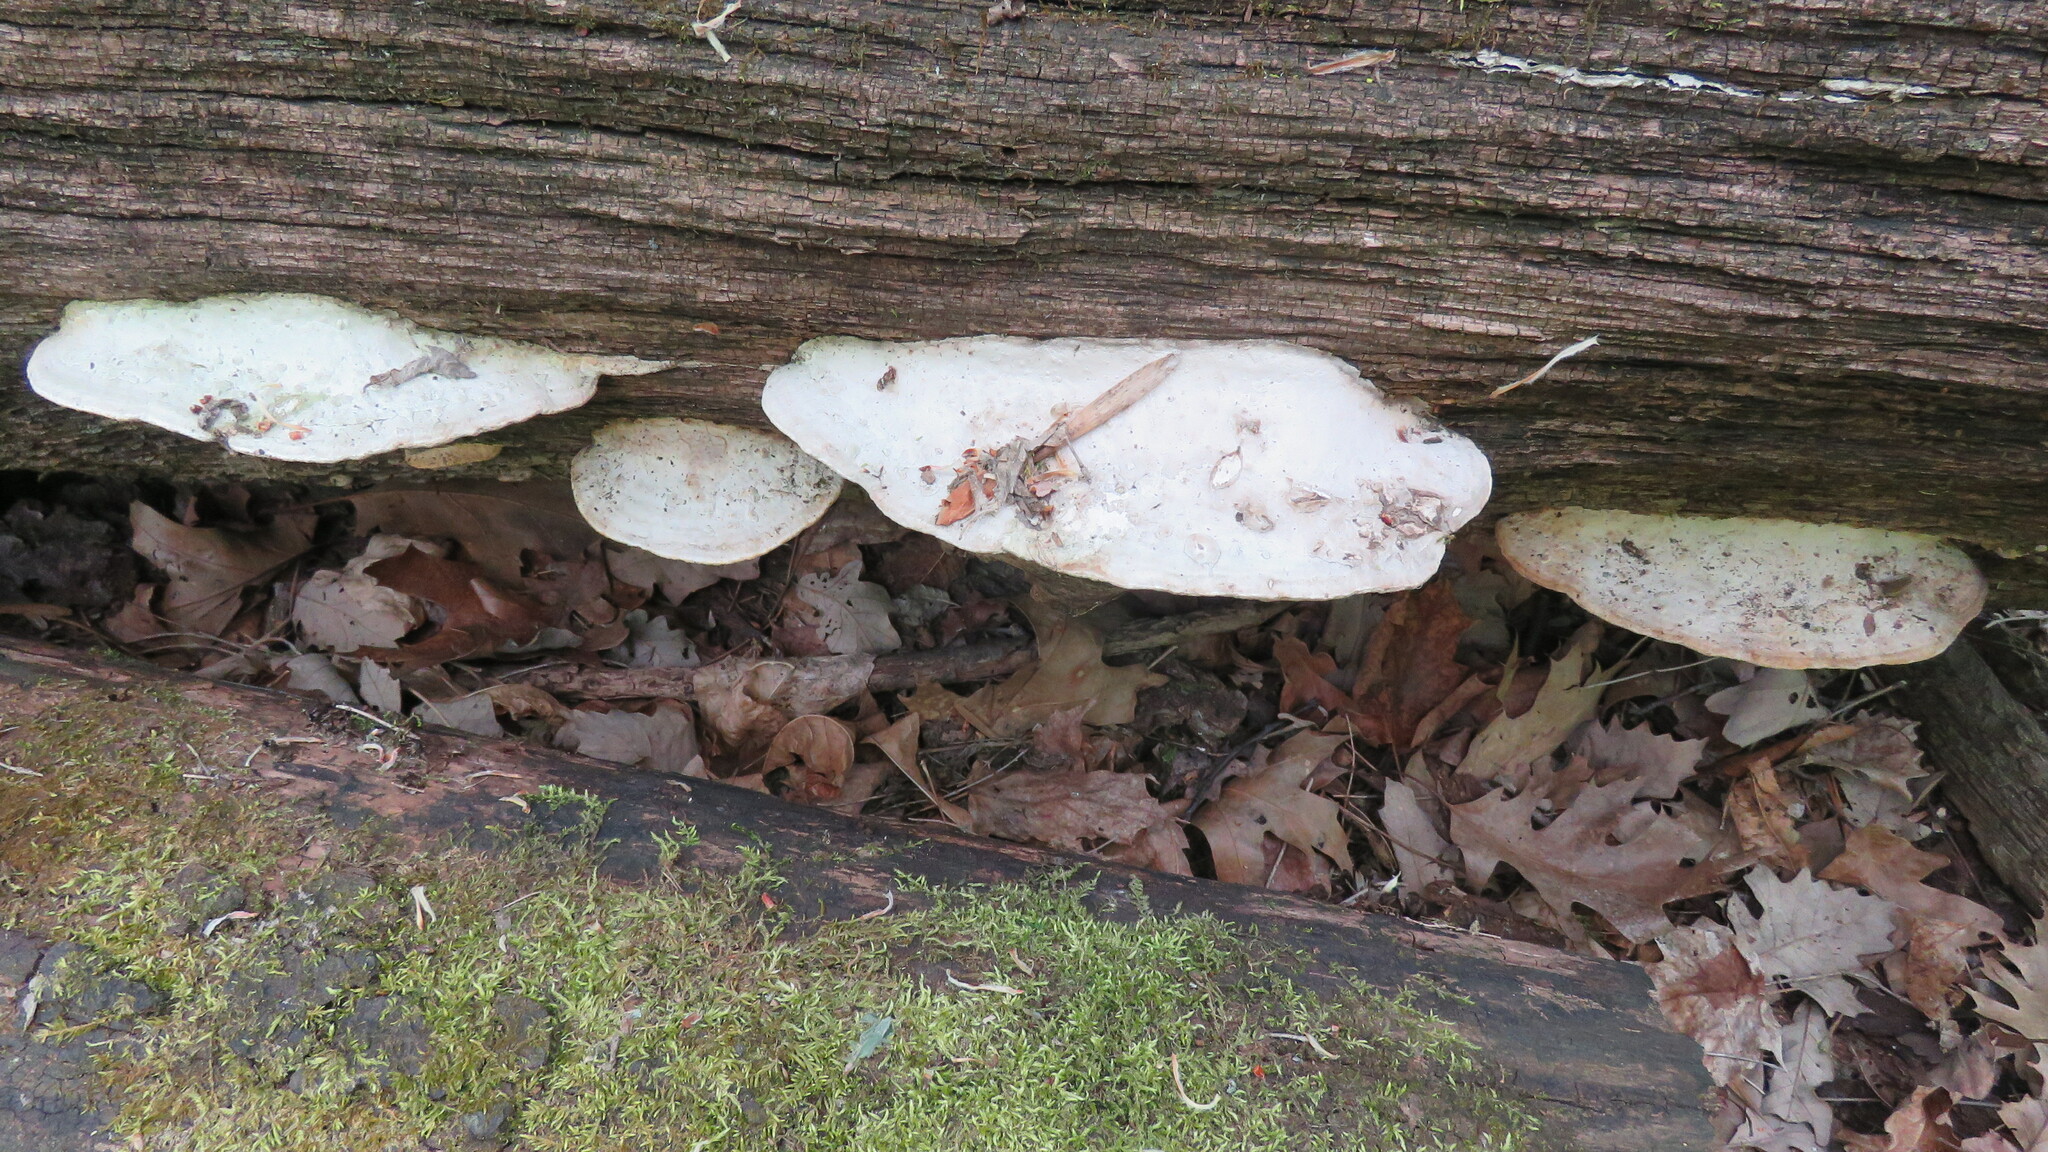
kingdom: Fungi
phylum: Basidiomycota
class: Agaricomycetes
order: Polyporales
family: Fomitopsidaceae
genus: Fomitopsis
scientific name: Fomitopsis
